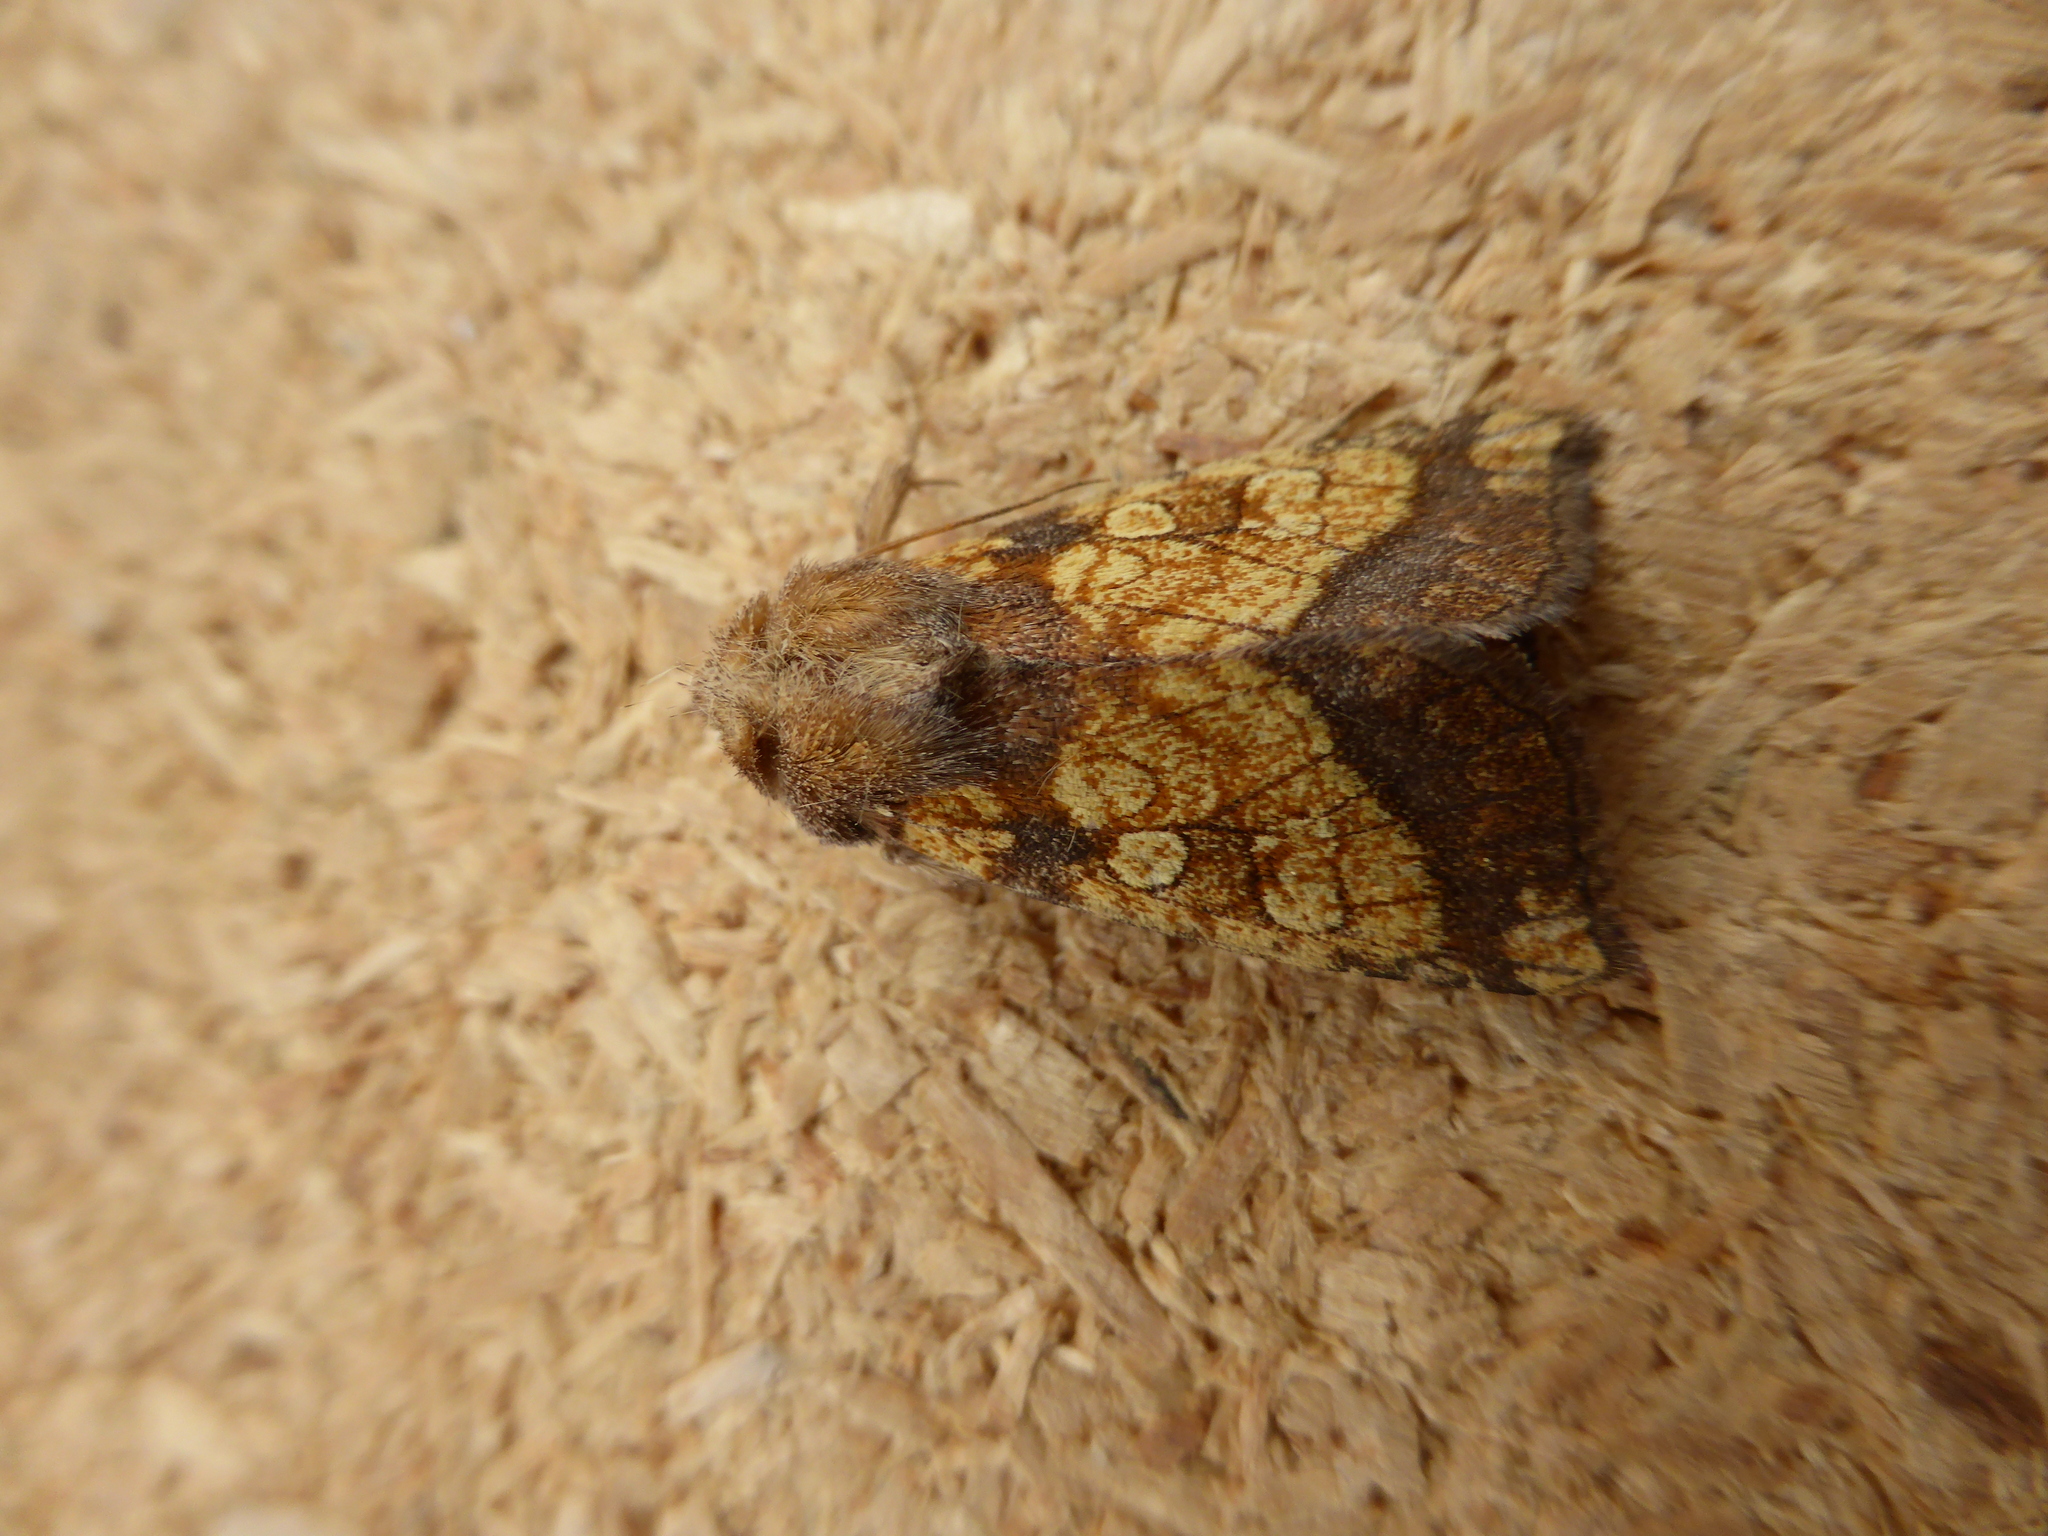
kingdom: Animalia
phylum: Arthropoda
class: Insecta
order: Lepidoptera
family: Noctuidae
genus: Gortyna
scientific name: Gortyna flavago
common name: Frosted orange
